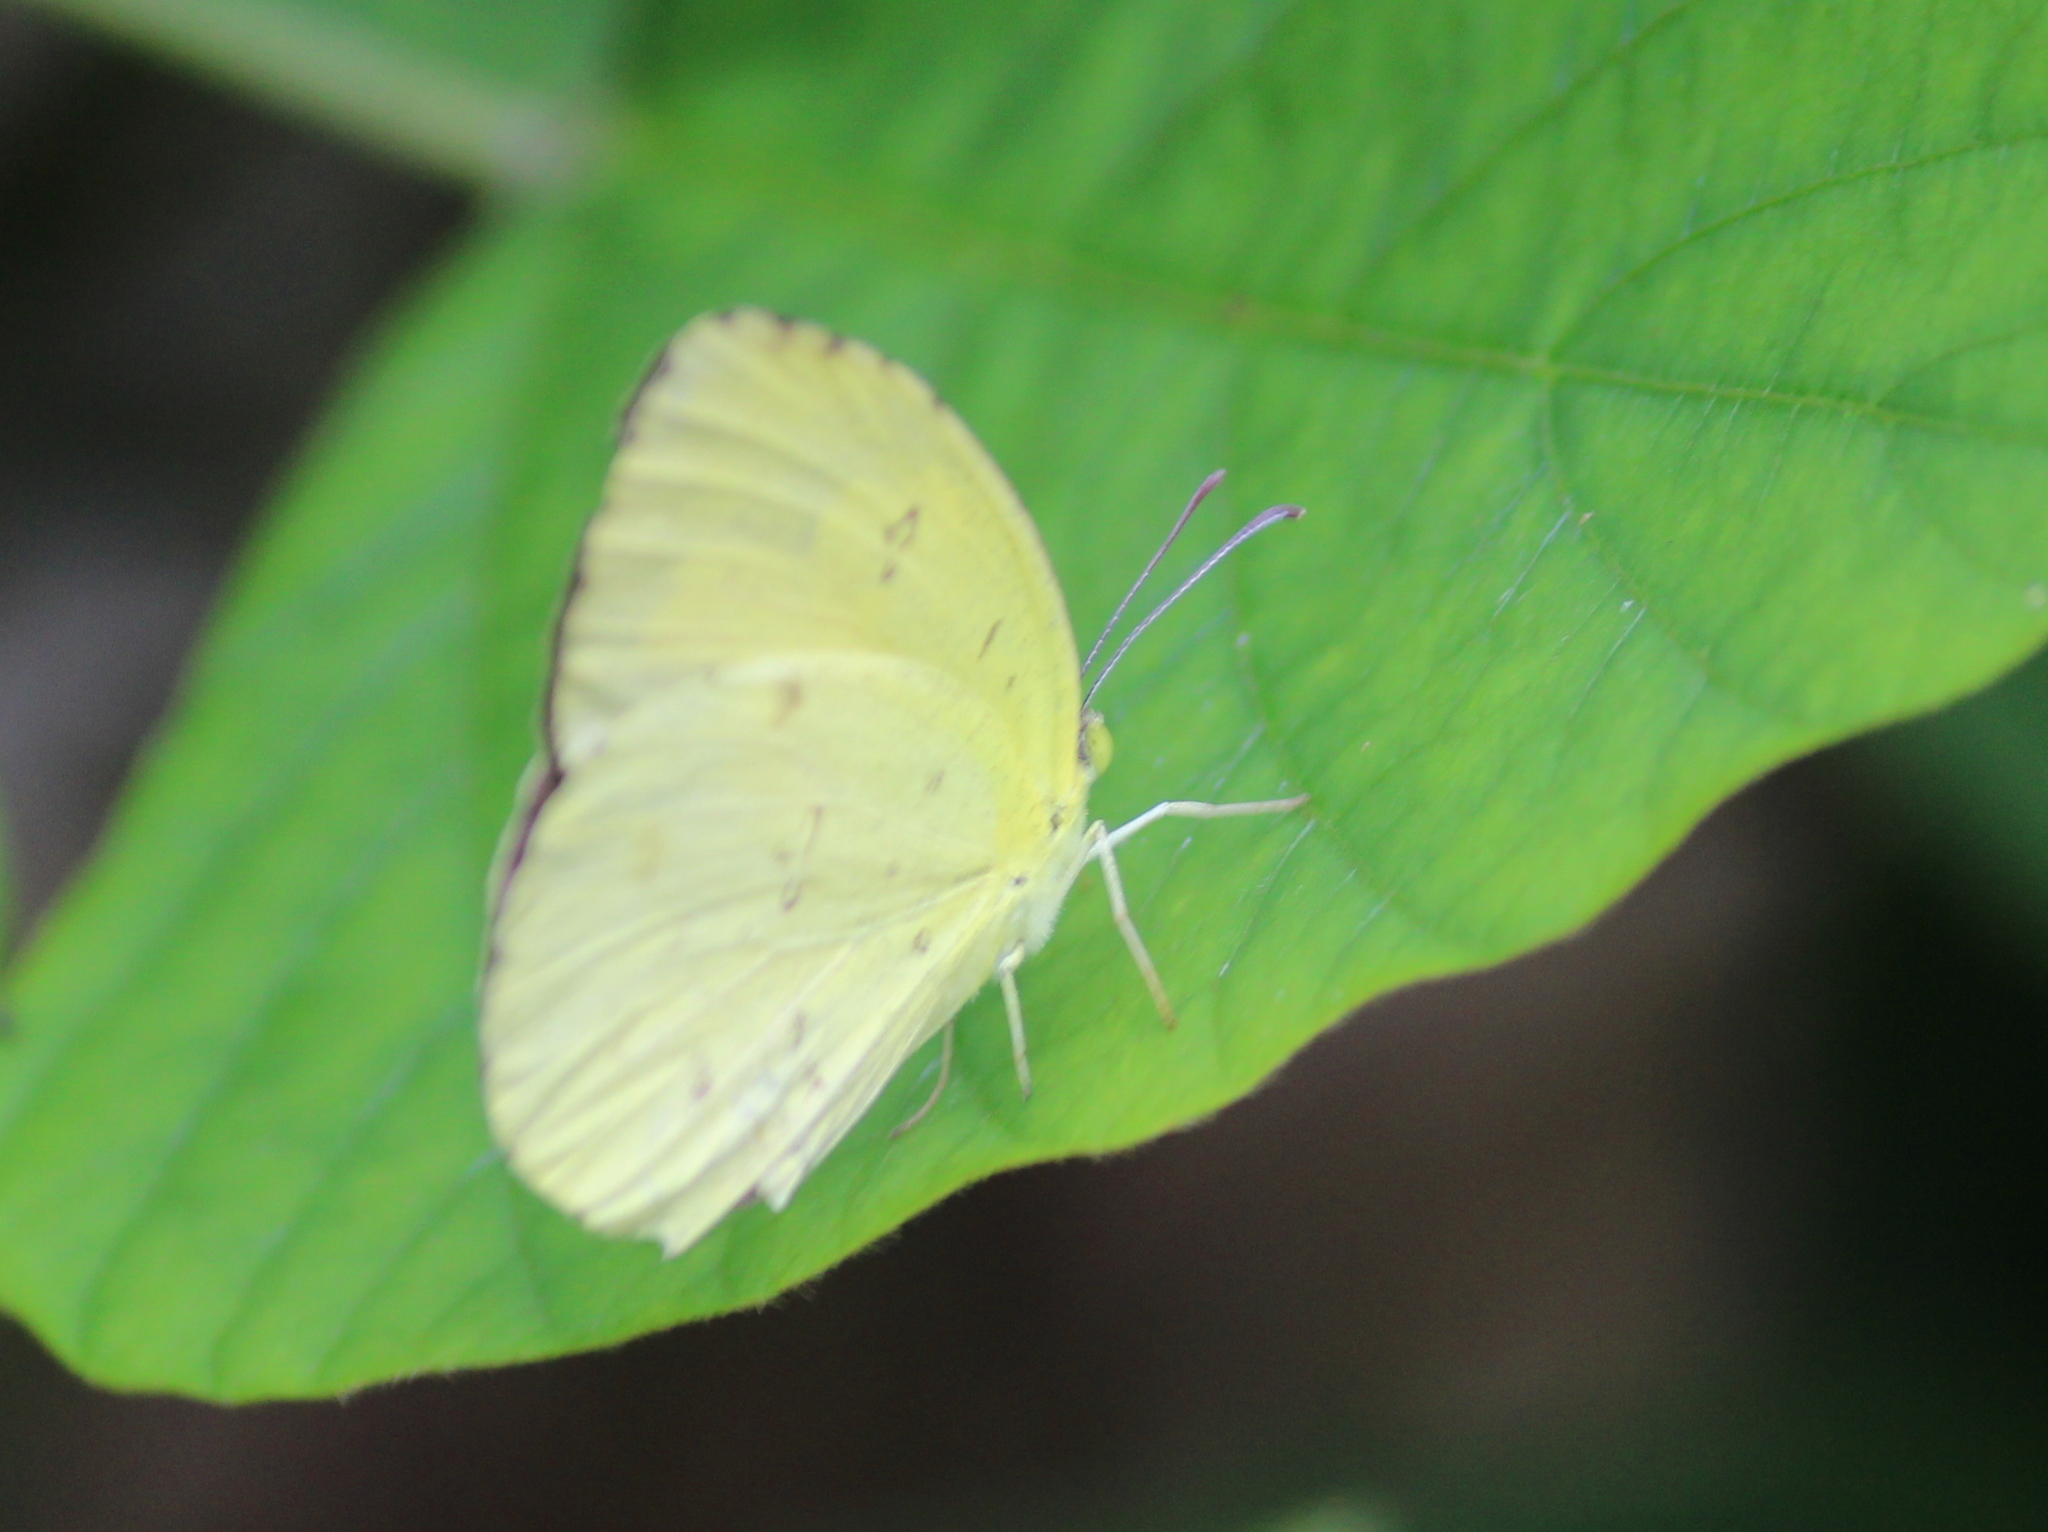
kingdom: Animalia
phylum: Arthropoda
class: Insecta
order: Lepidoptera
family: Pieridae
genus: Eurema
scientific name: Eurema hecabe
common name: Pale grass yellow
